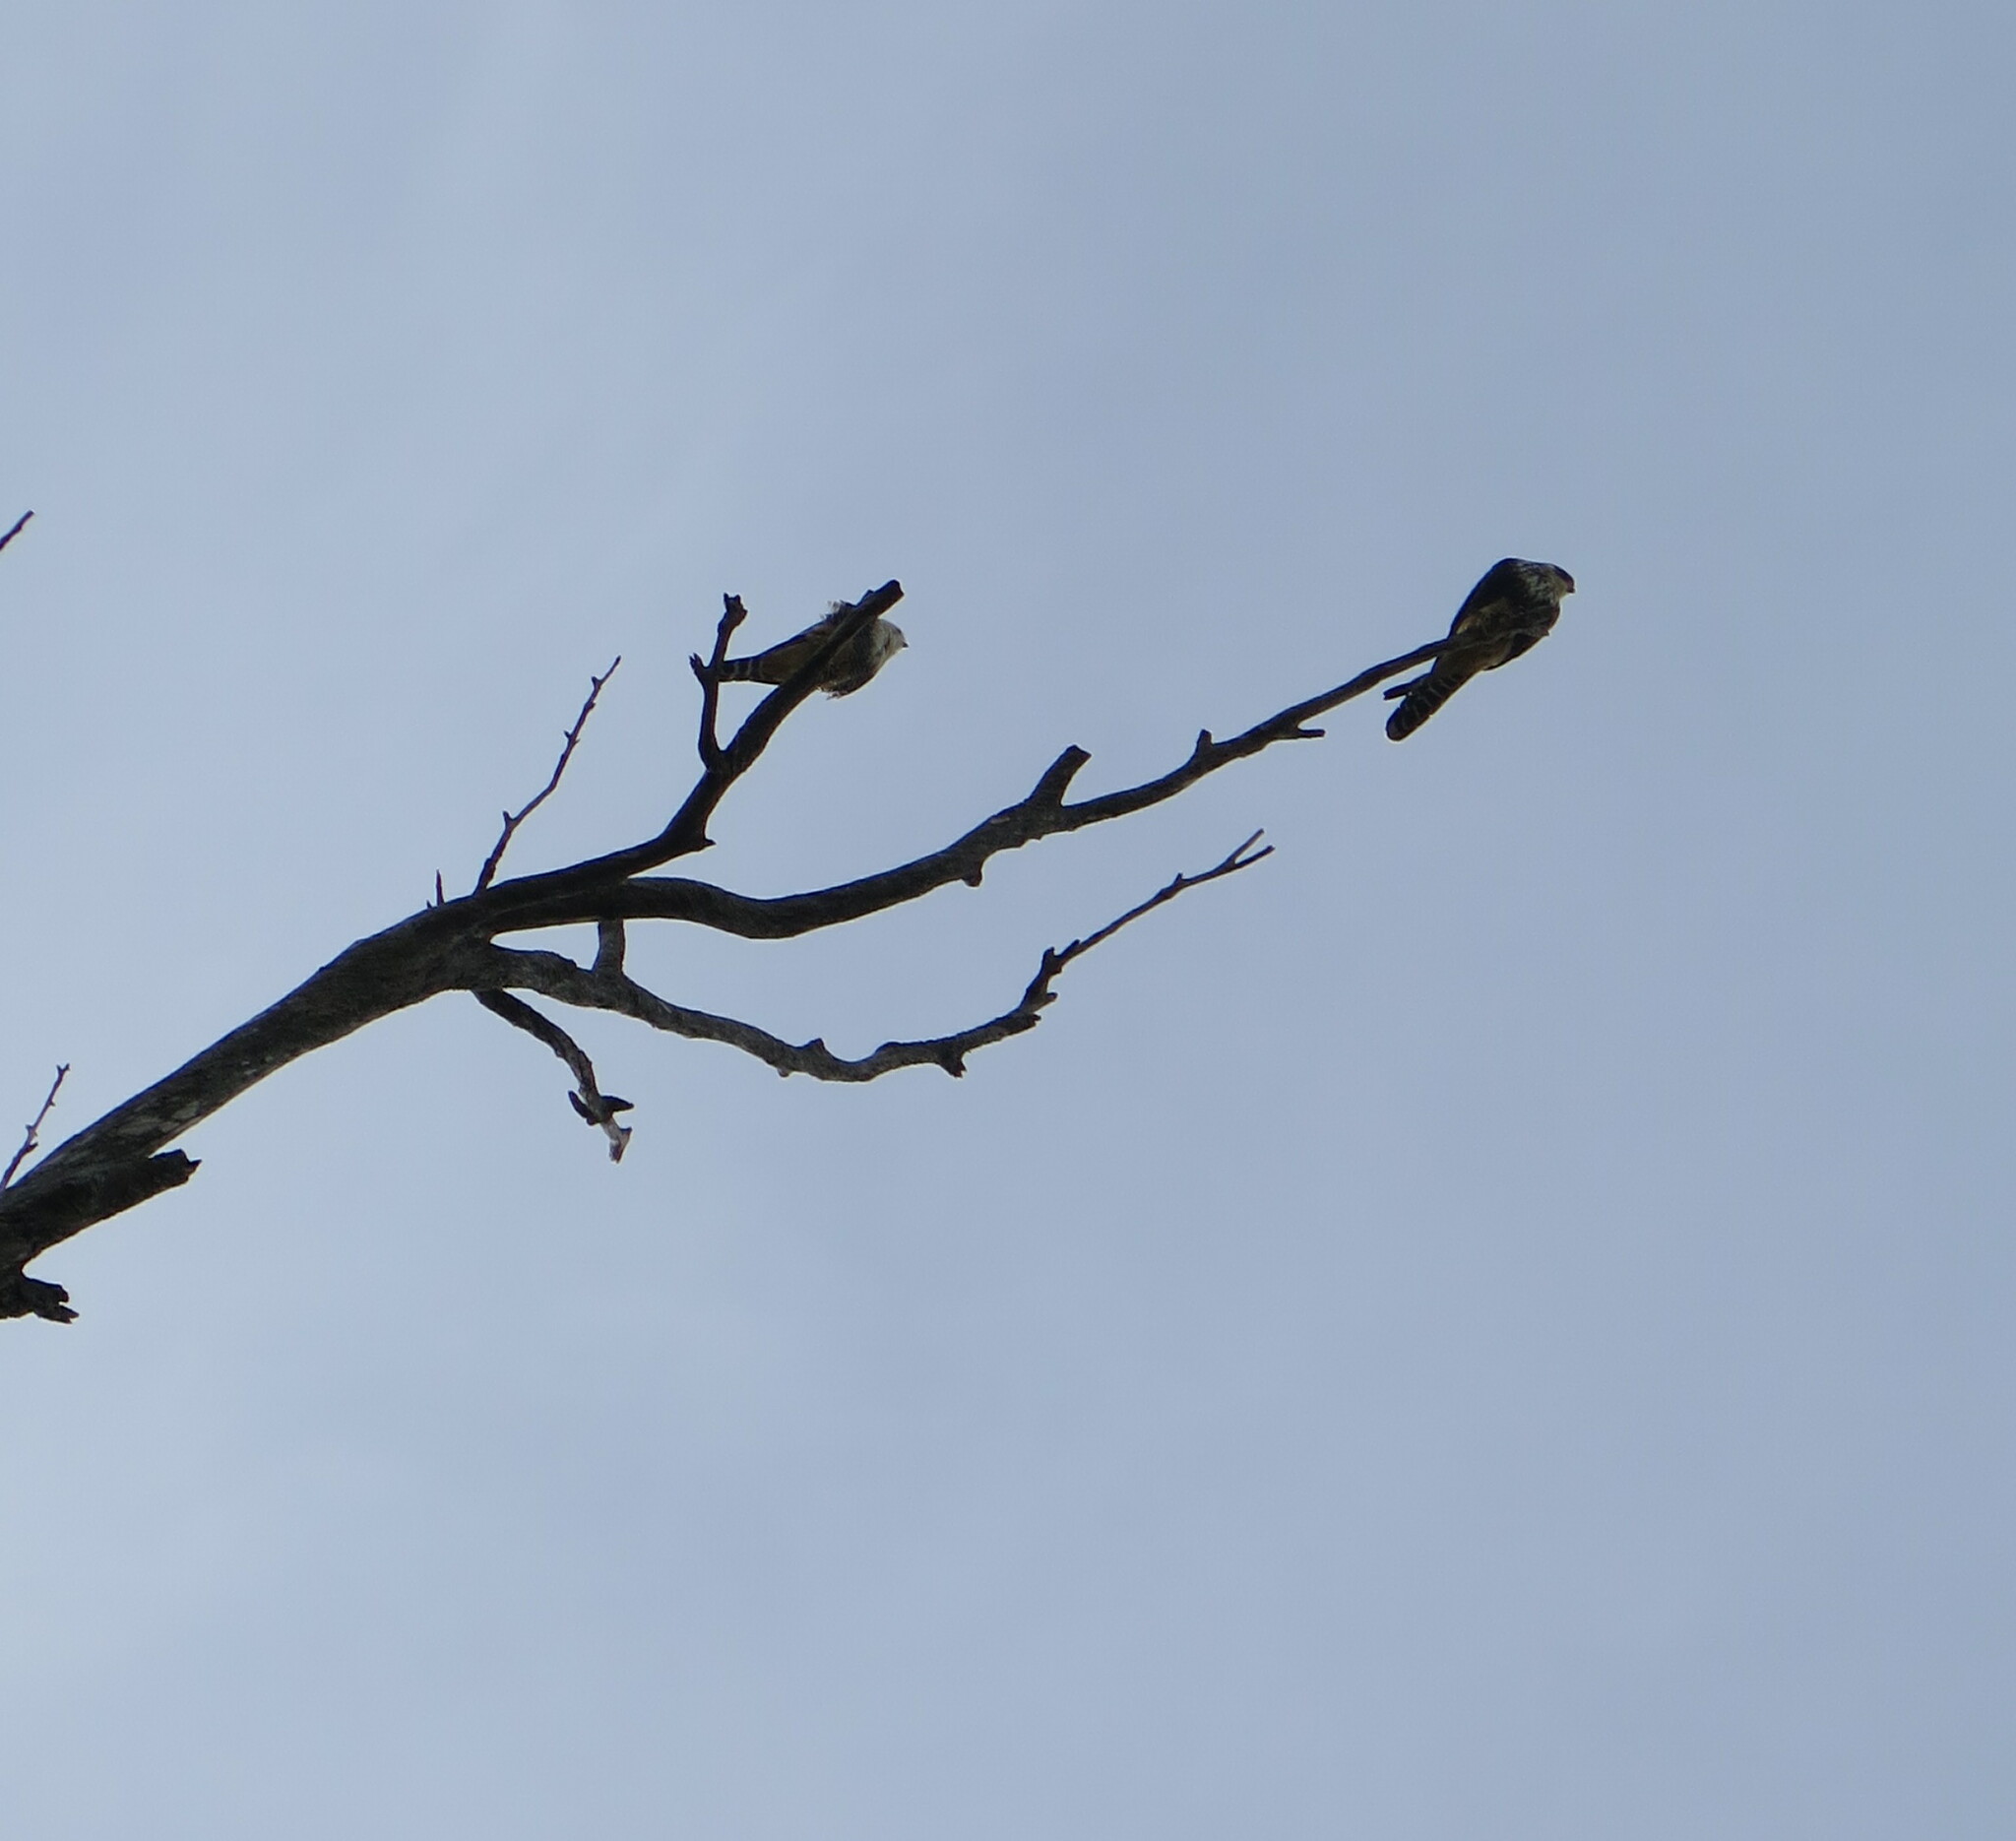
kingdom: Animalia
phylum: Chordata
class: Aves
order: Falconiformes
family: Falconidae
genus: Falco
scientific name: Falco femoralis
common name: Aplomado falcon
